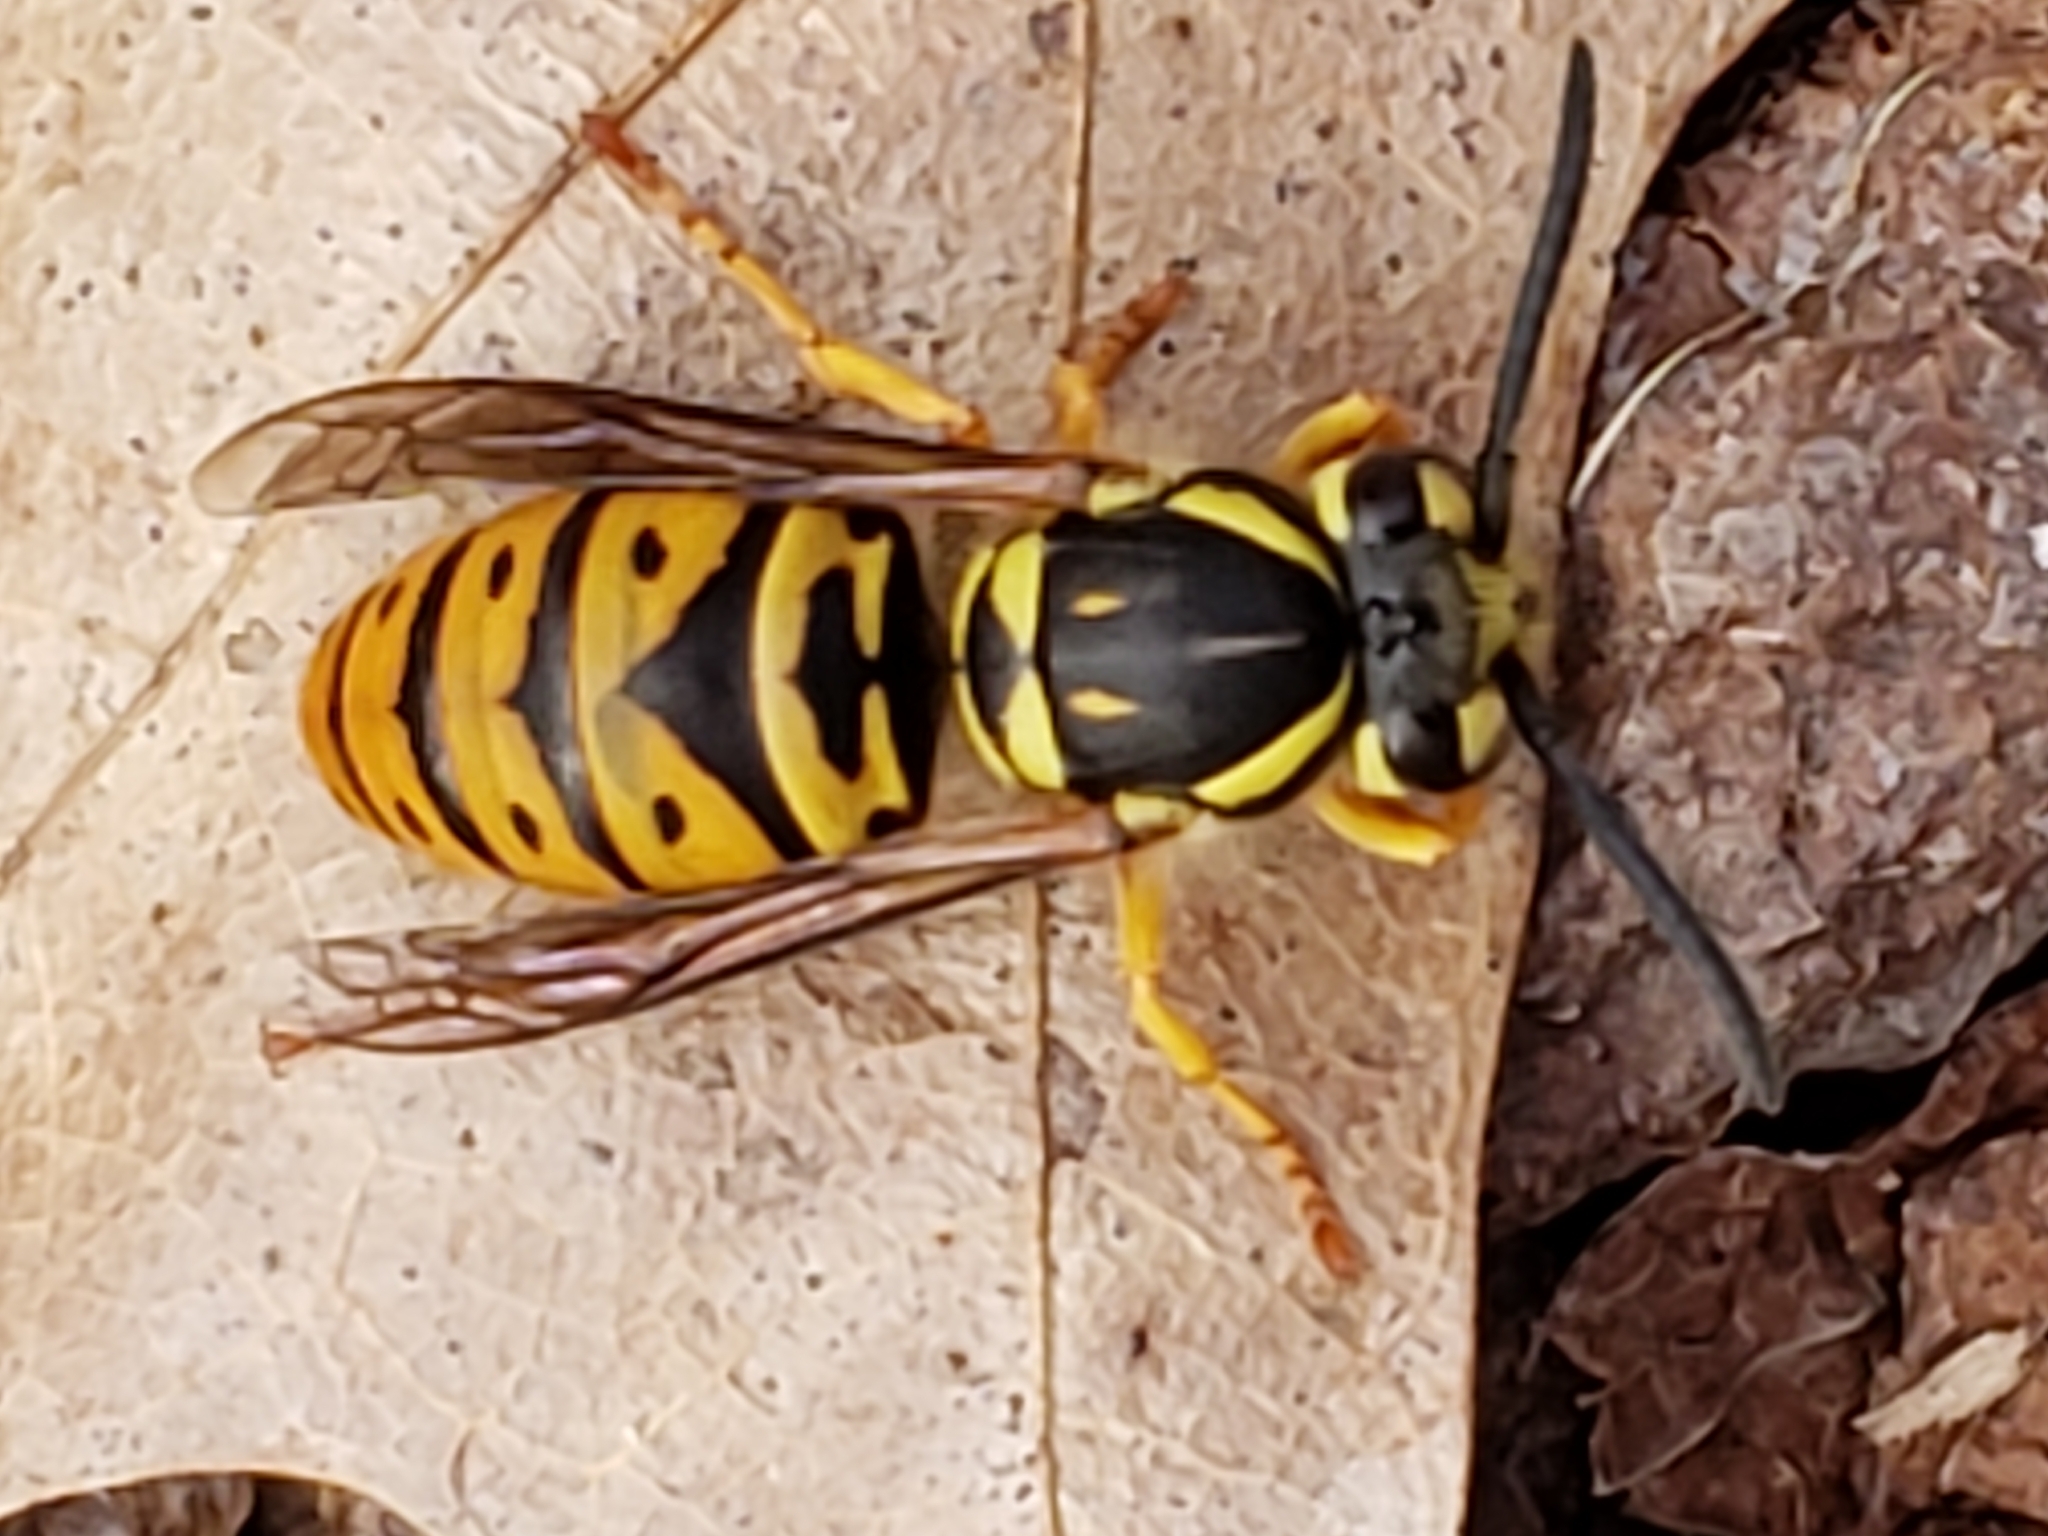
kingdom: Animalia
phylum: Arthropoda
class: Insecta
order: Hymenoptera
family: Vespidae
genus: Vespula
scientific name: Vespula maculifrons
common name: Eastern yellowjacket
